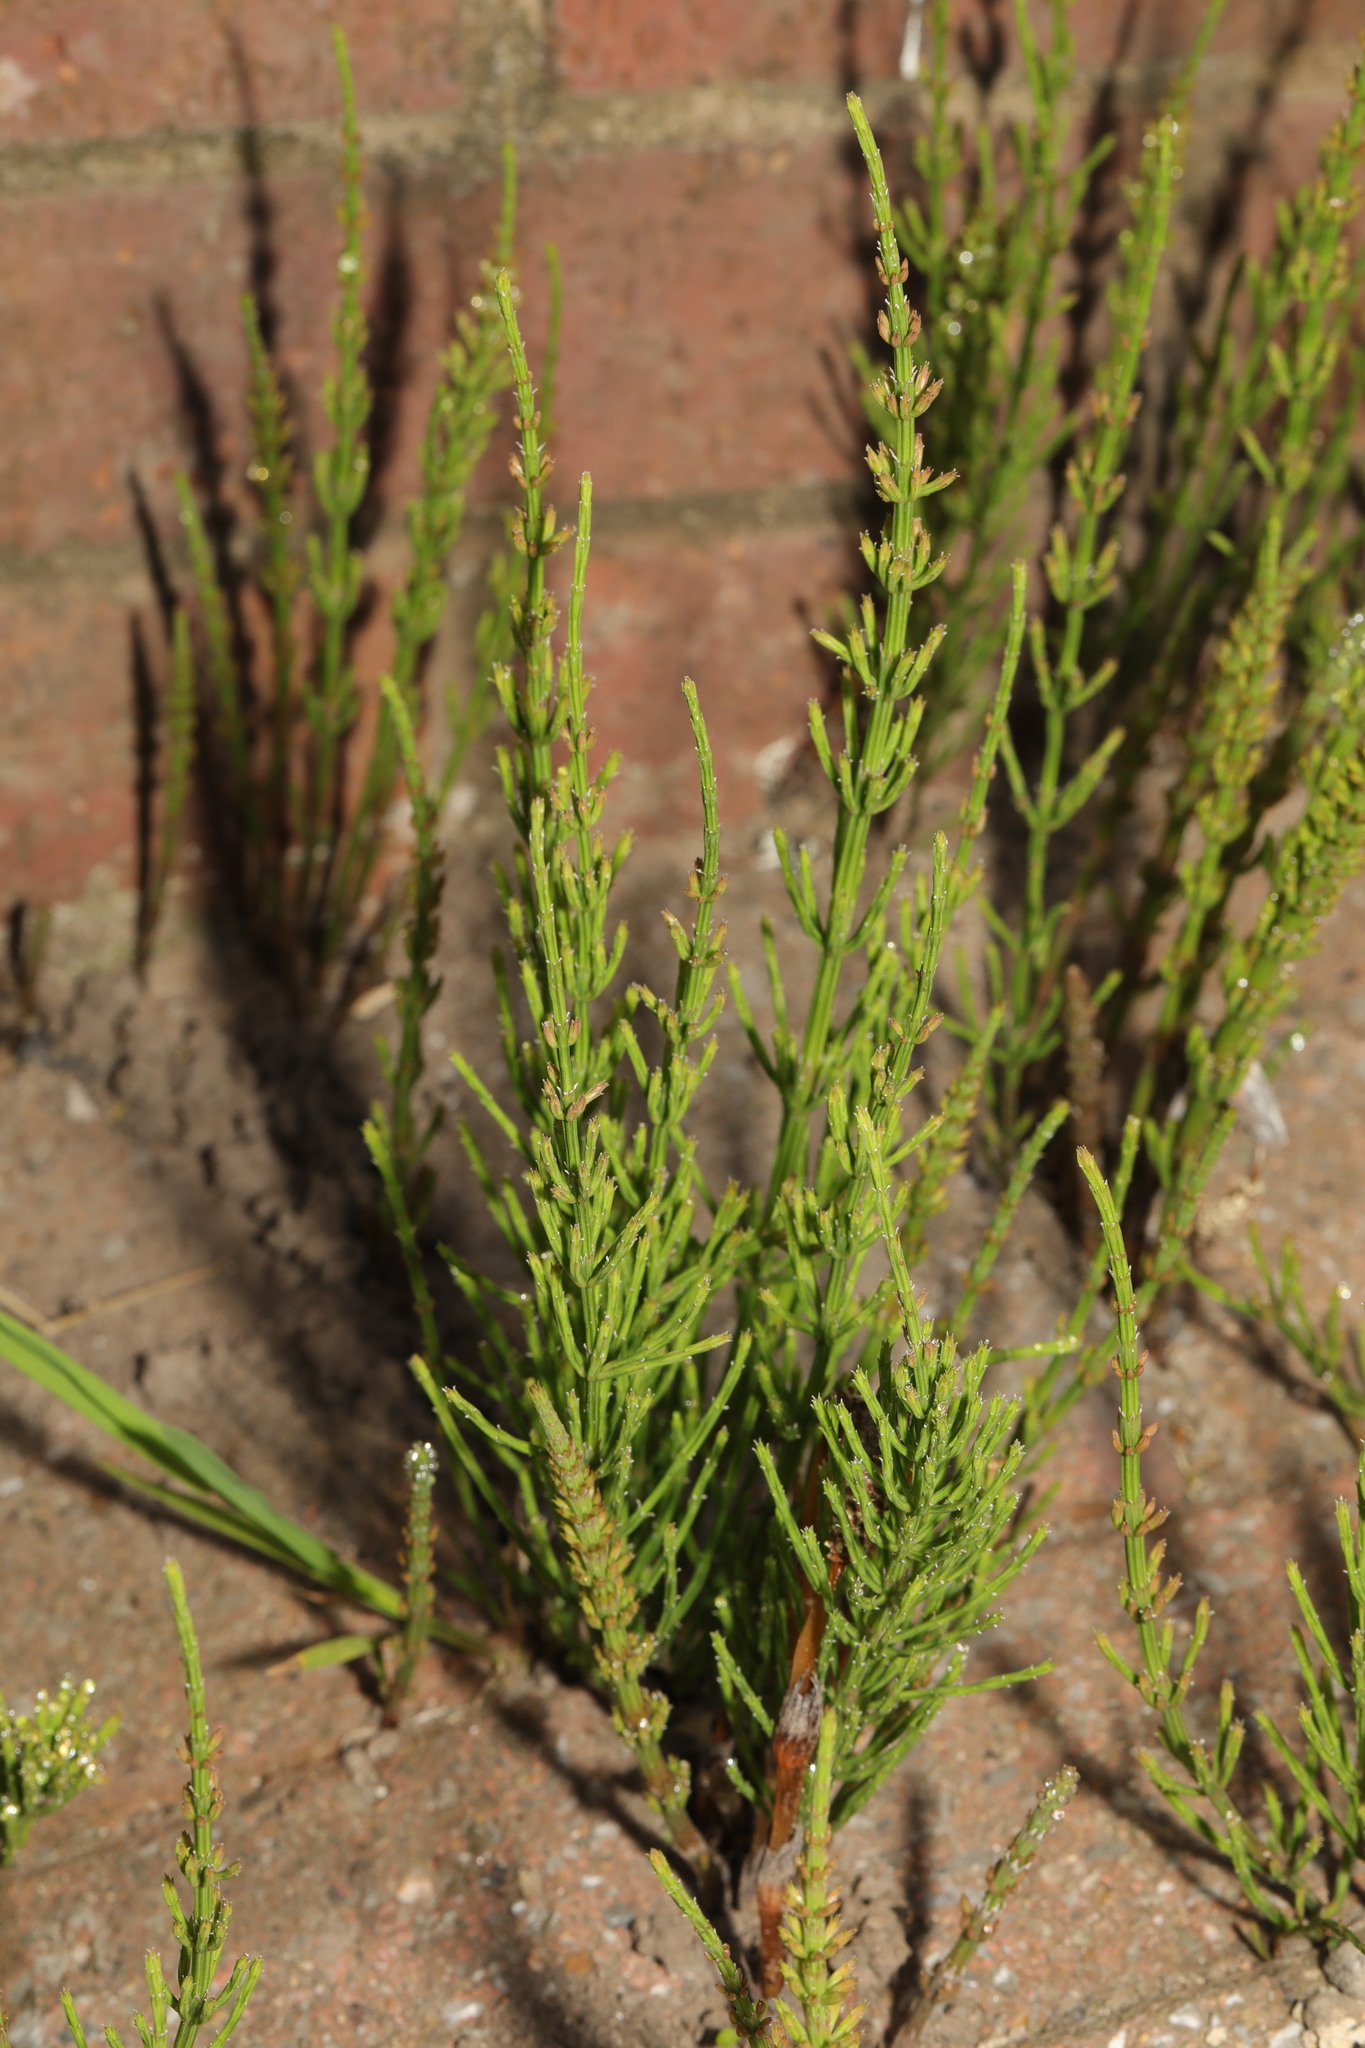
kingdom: Plantae
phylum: Tracheophyta
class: Polypodiopsida
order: Equisetales
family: Equisetaceae
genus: Equisetum
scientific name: Equisetum arvense
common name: Field horsetail
